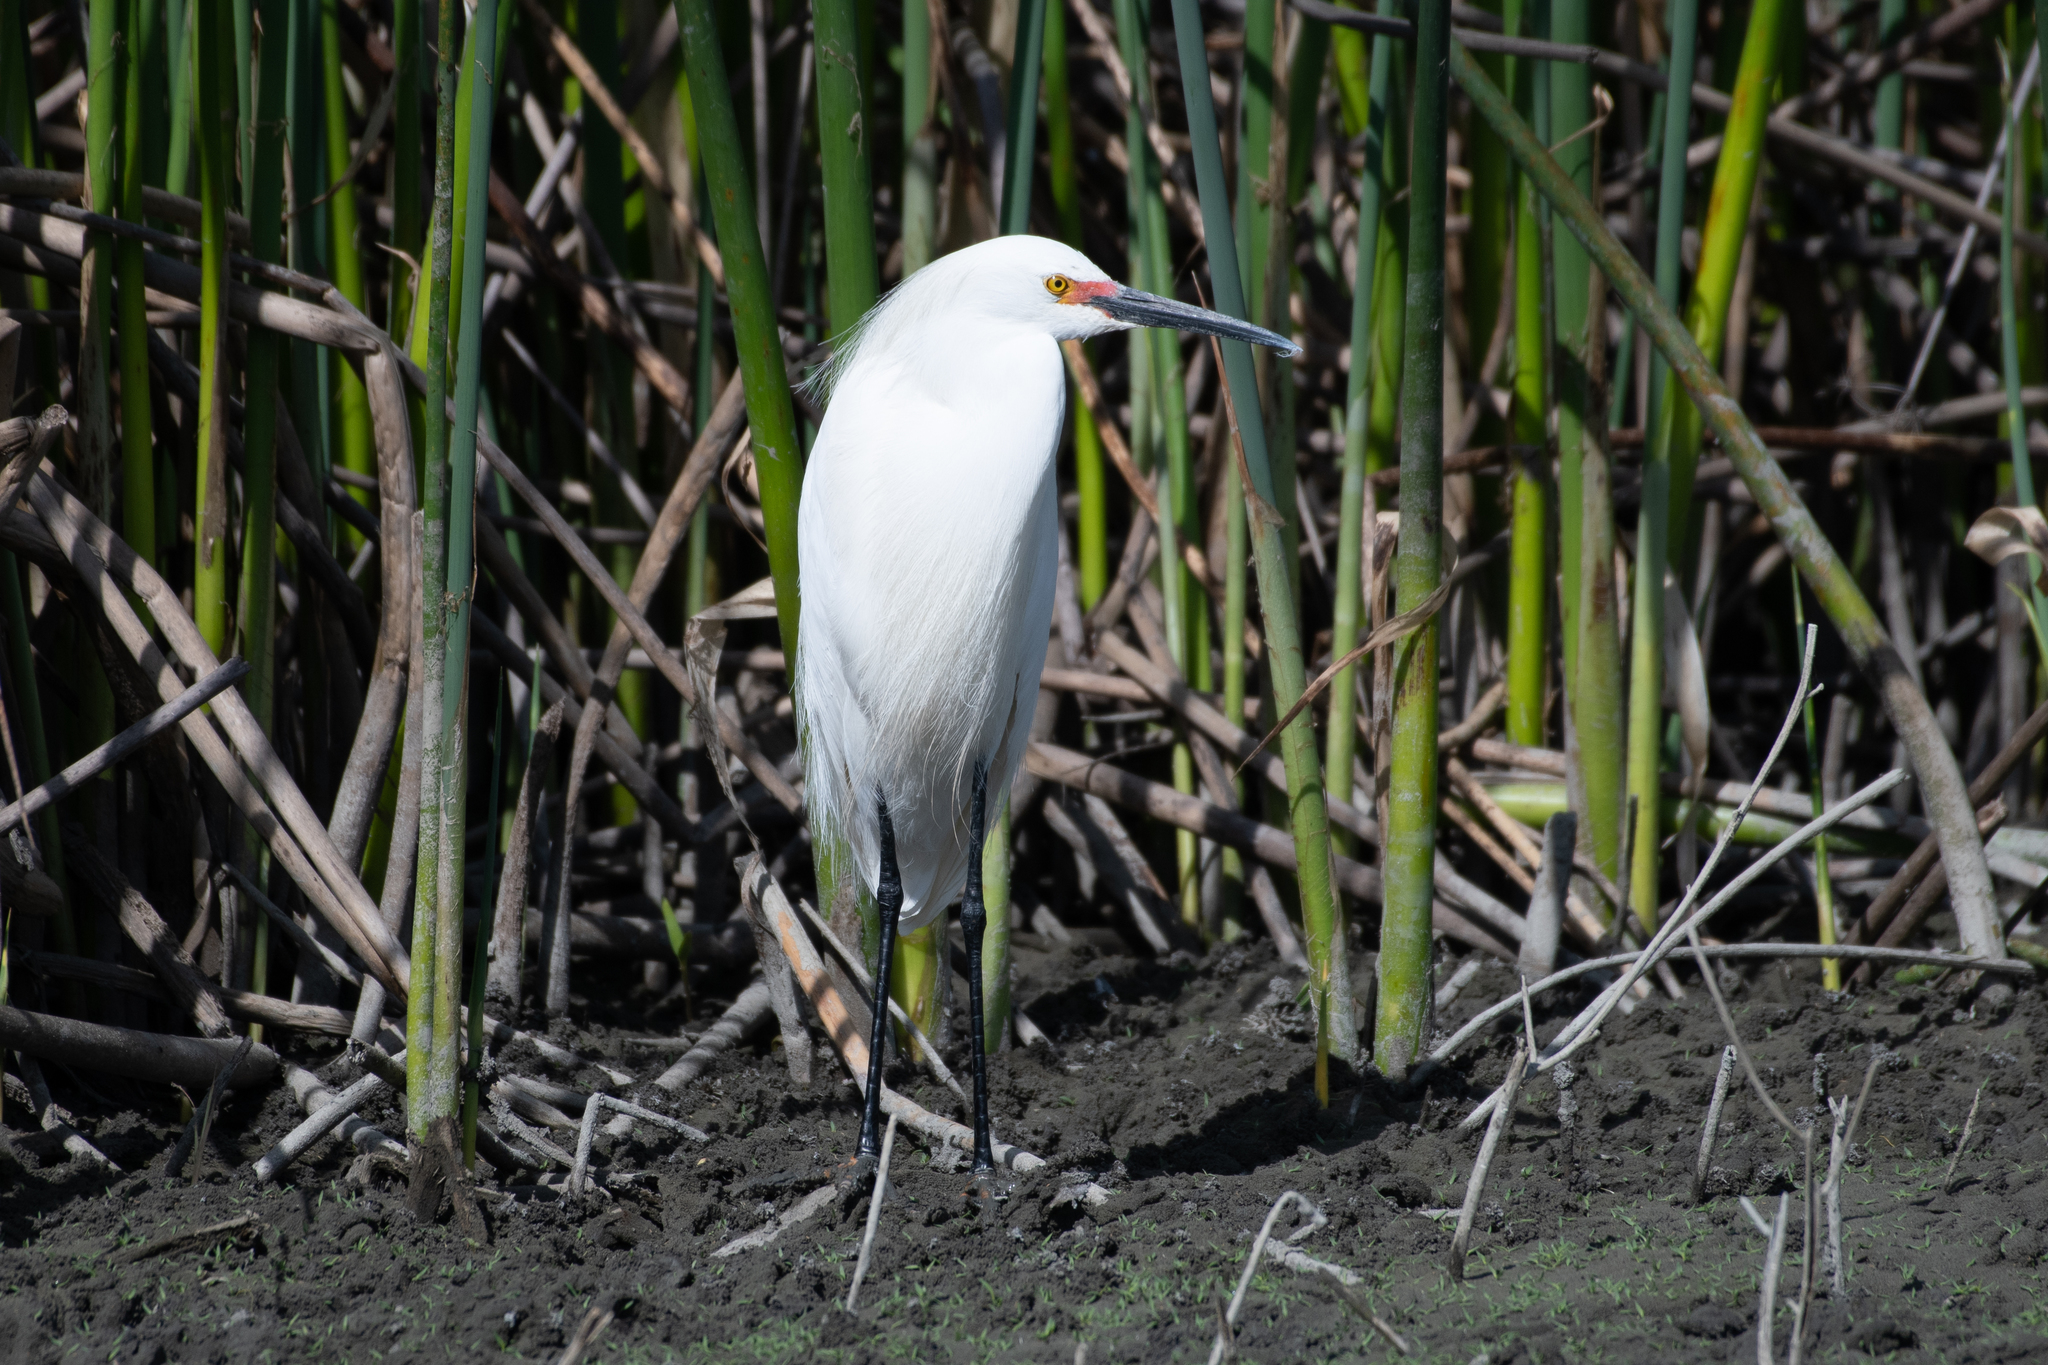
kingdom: Animalia
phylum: Chordata
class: Aves
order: Pelecaniformes
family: Ardeidae
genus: Egretta
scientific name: Egretta thula
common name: Snowy egret
